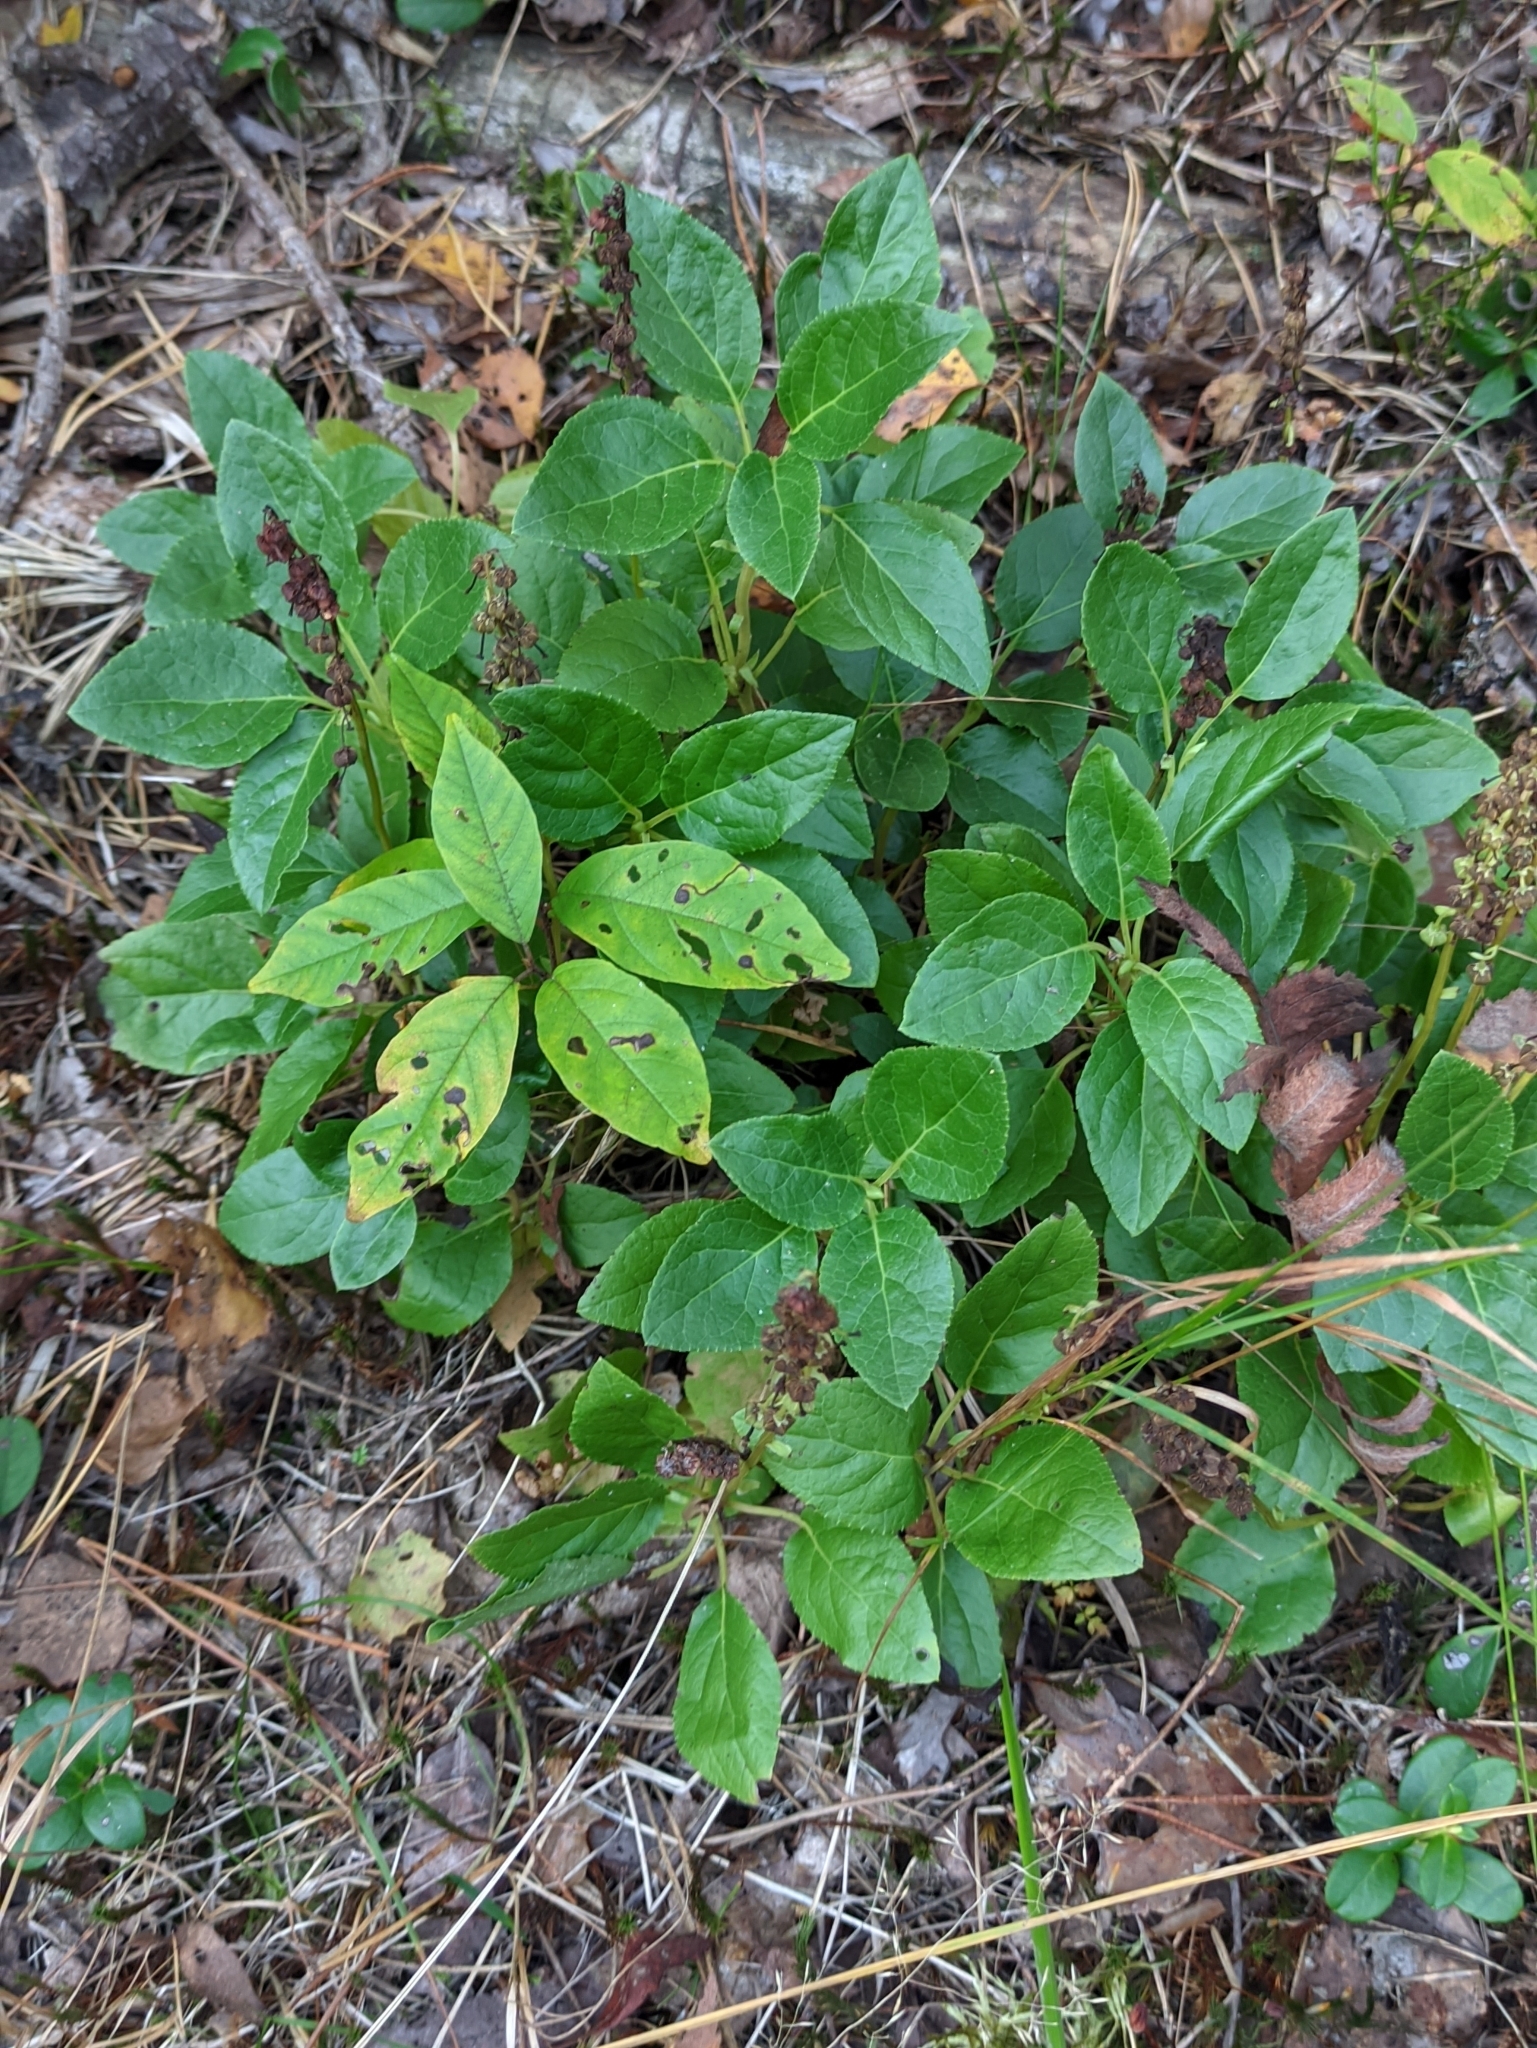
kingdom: Plantae
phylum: Tracheophyta
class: Magnoliopsida
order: Ericales
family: Ericaceae
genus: Orthilia
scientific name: Orthilia secunda
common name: One-sided orthilia
